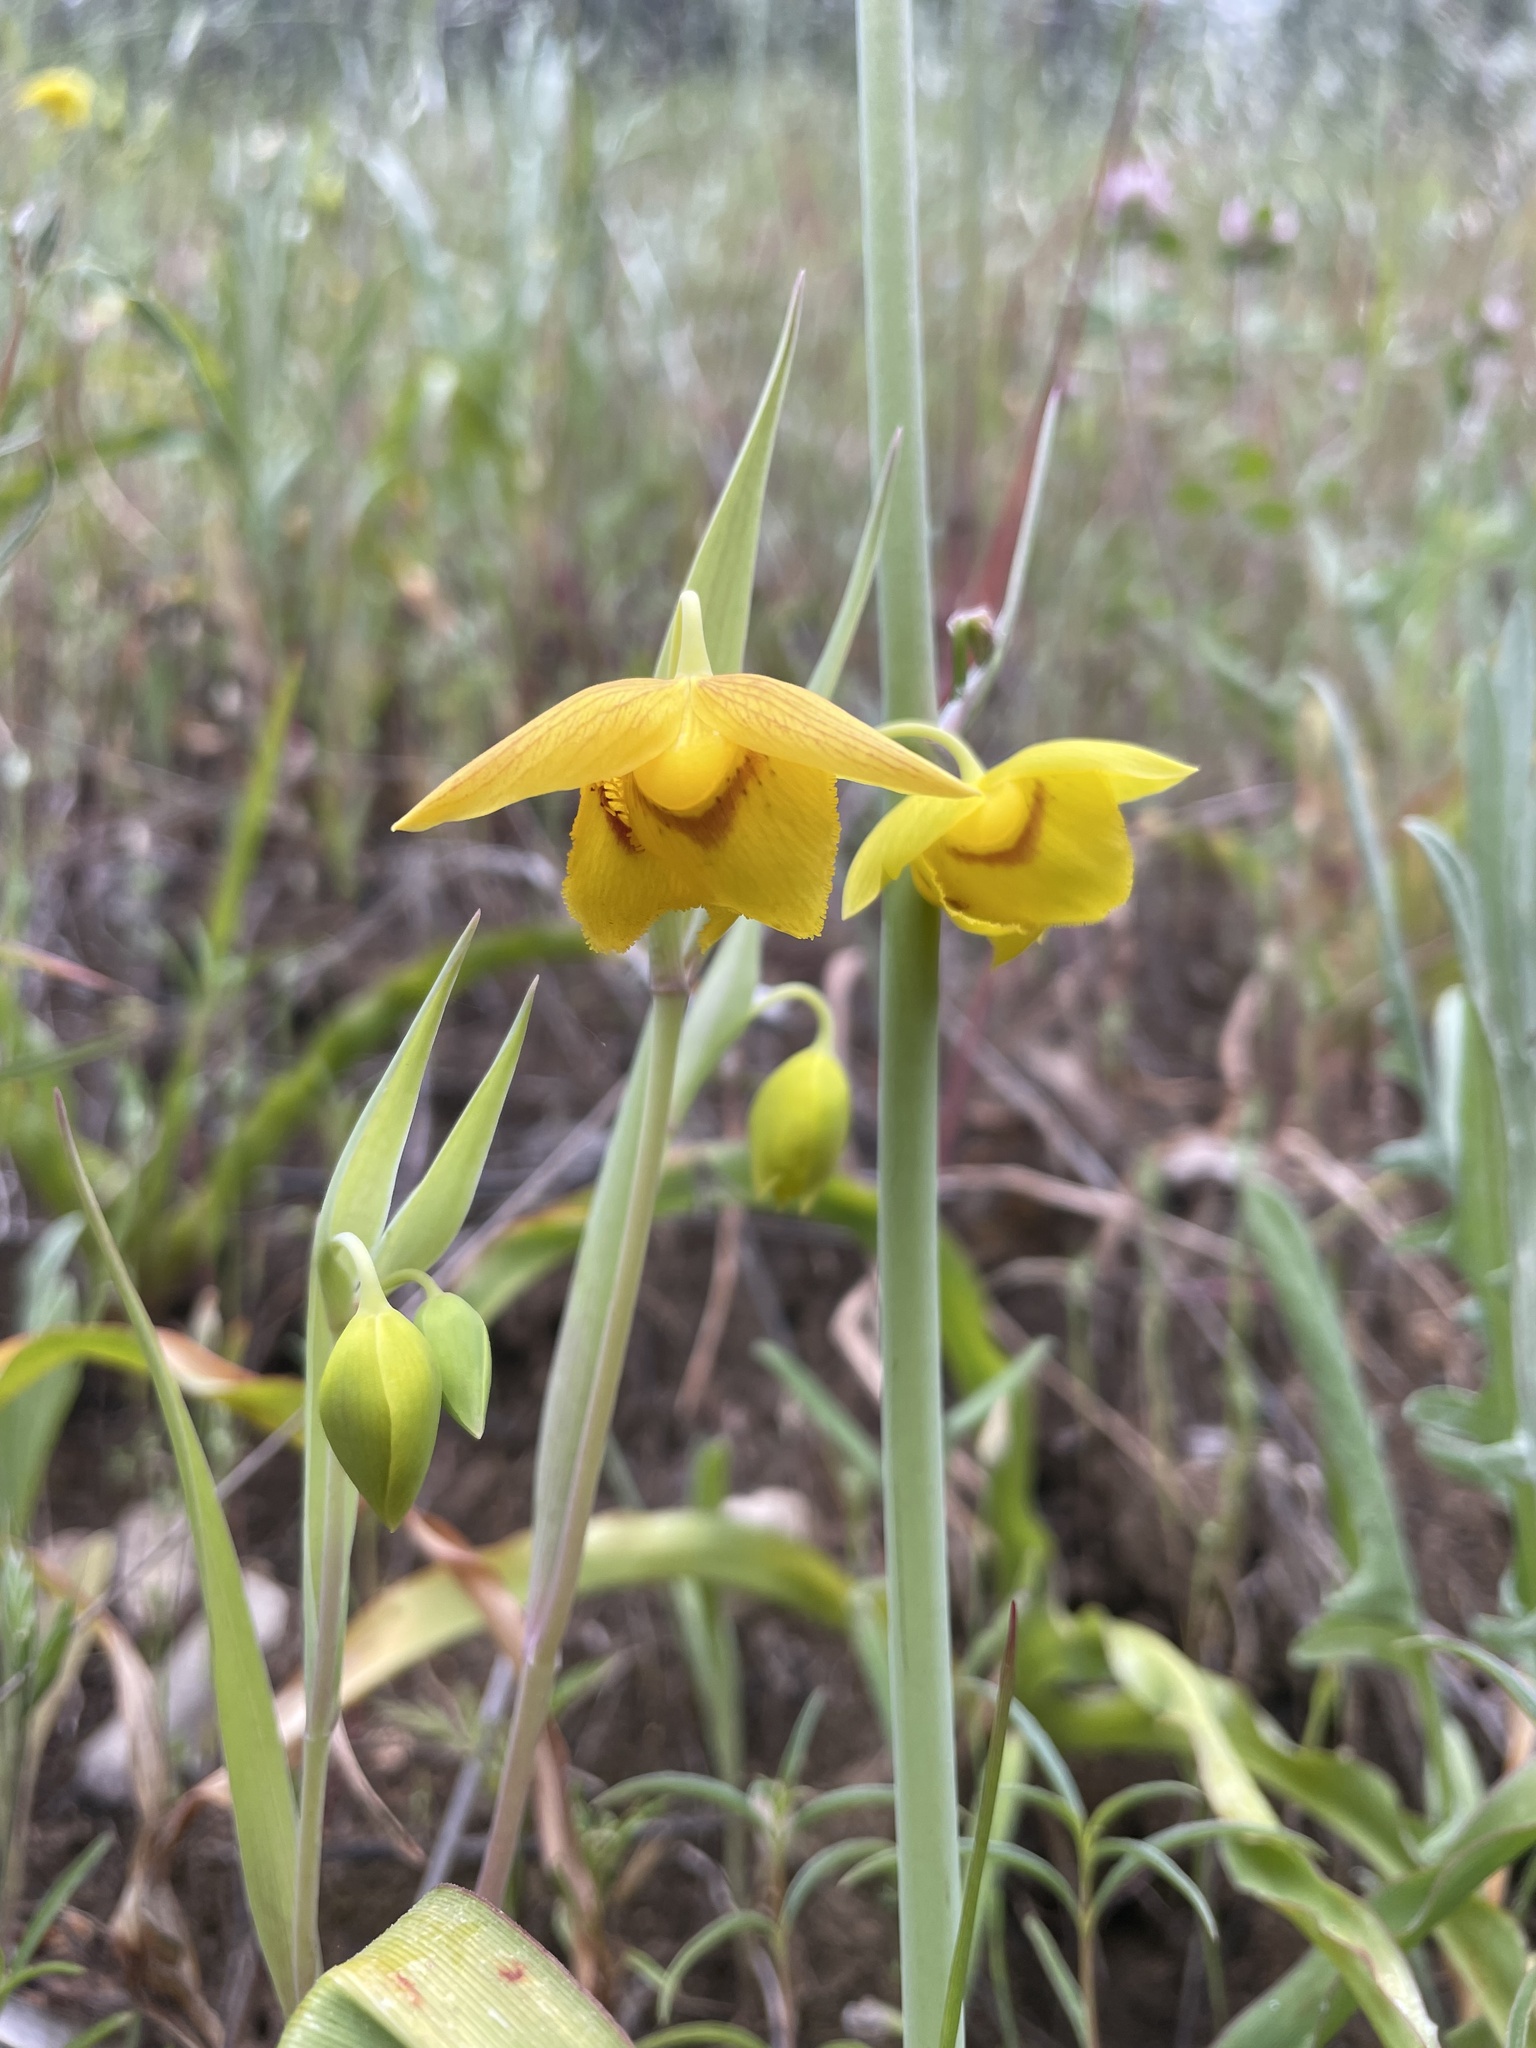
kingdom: Plantae
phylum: Tracheophyta
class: Liliopsida
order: Liliales
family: Liliaceae
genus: Calochortus
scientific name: Calochortus amabilis
